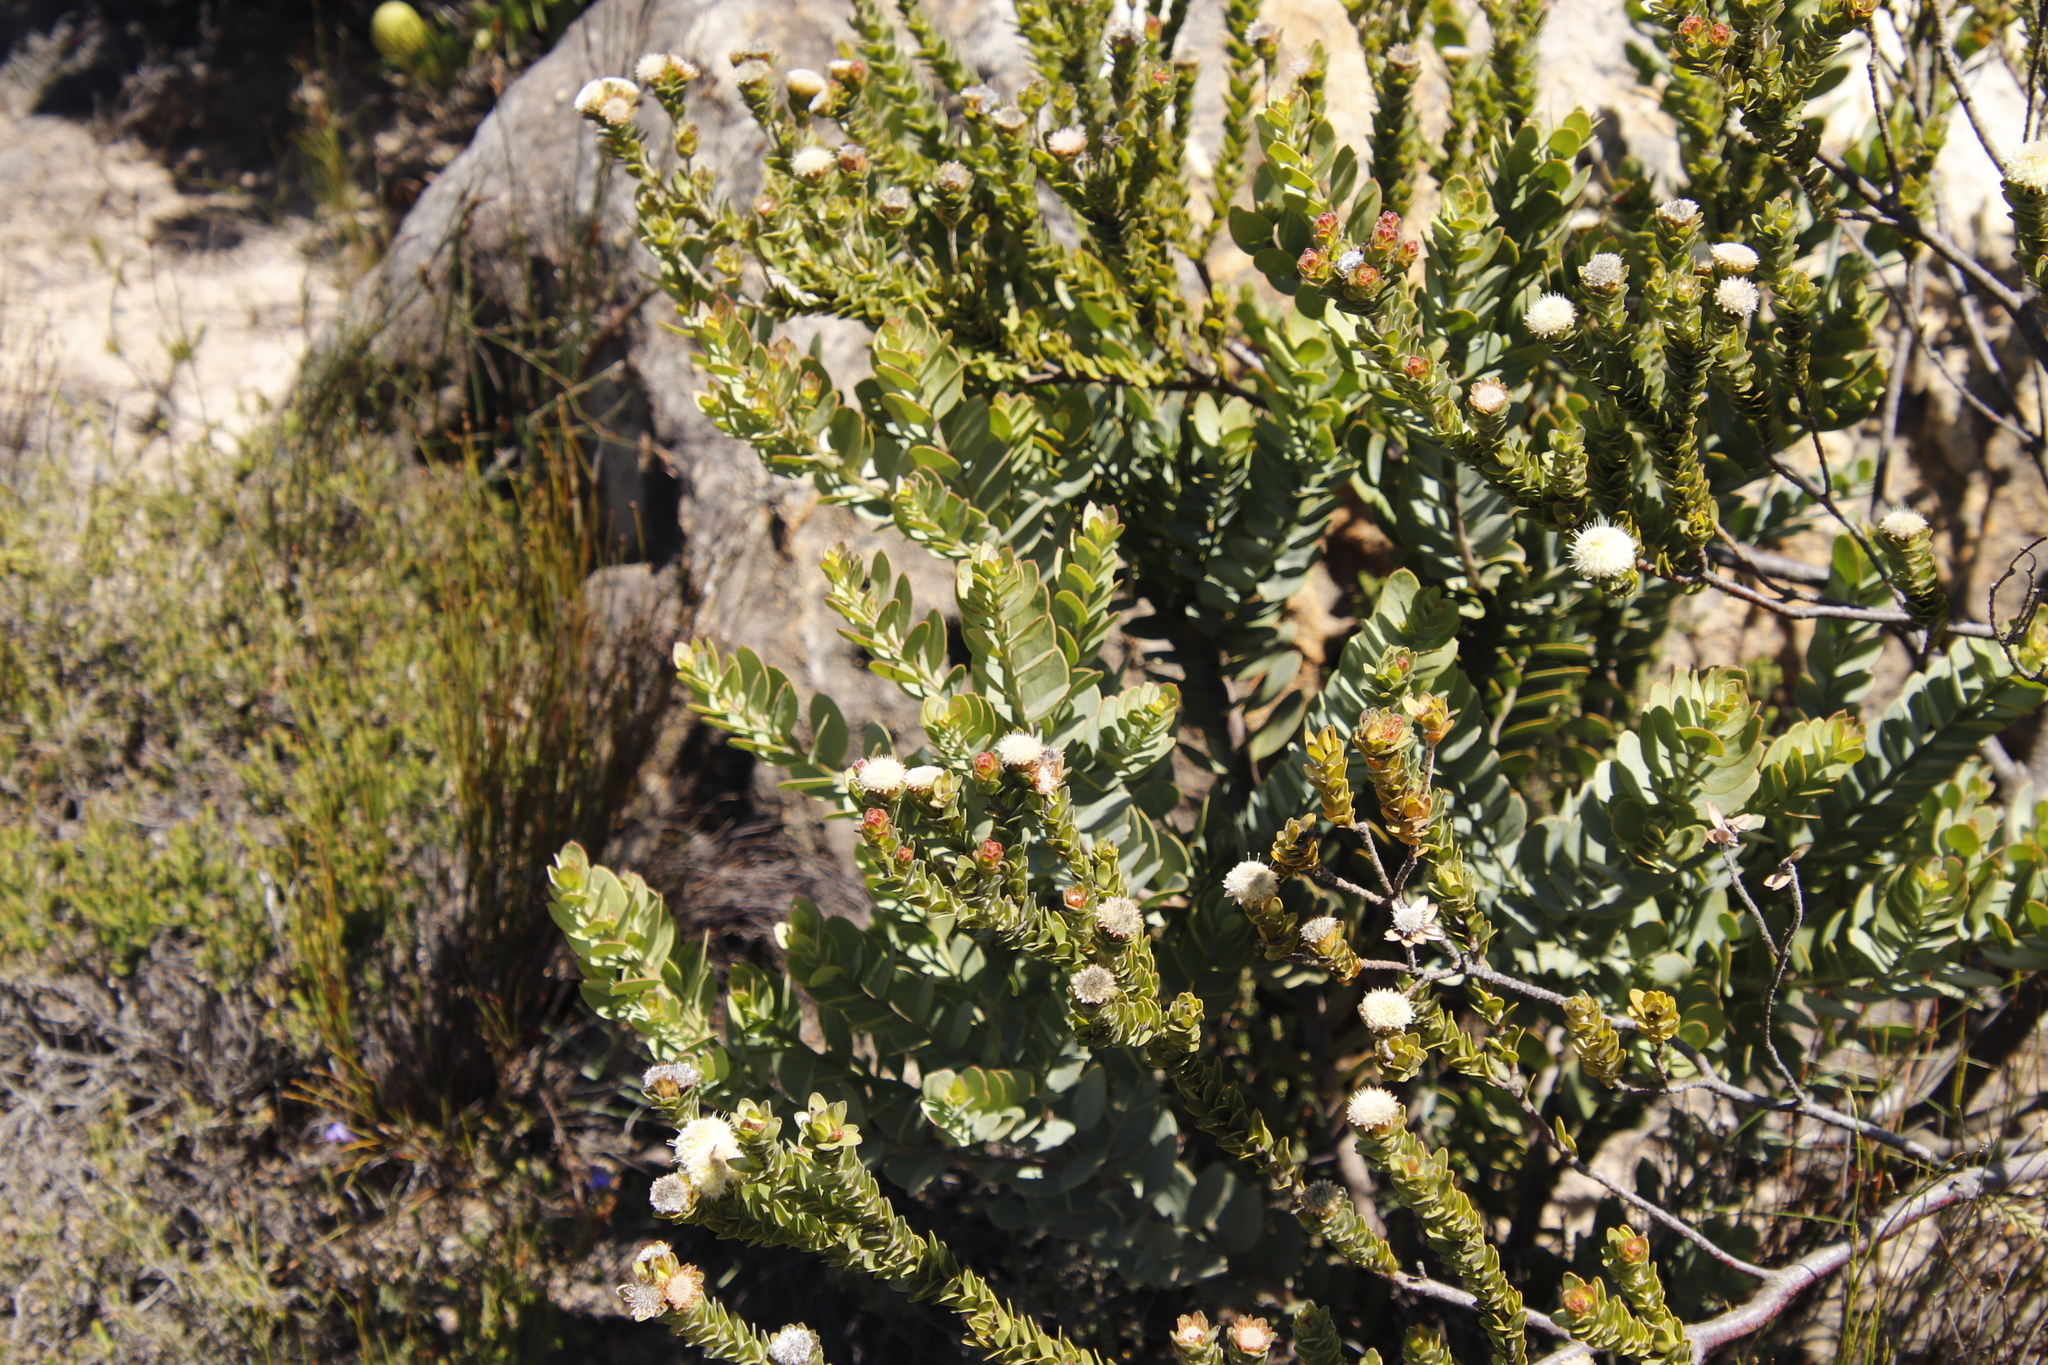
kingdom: Plantae
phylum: Tracheophyta
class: Magnoliopsida
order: Proteales
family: Proteaceae
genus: Diastella
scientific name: Diastella thymelaeoides
